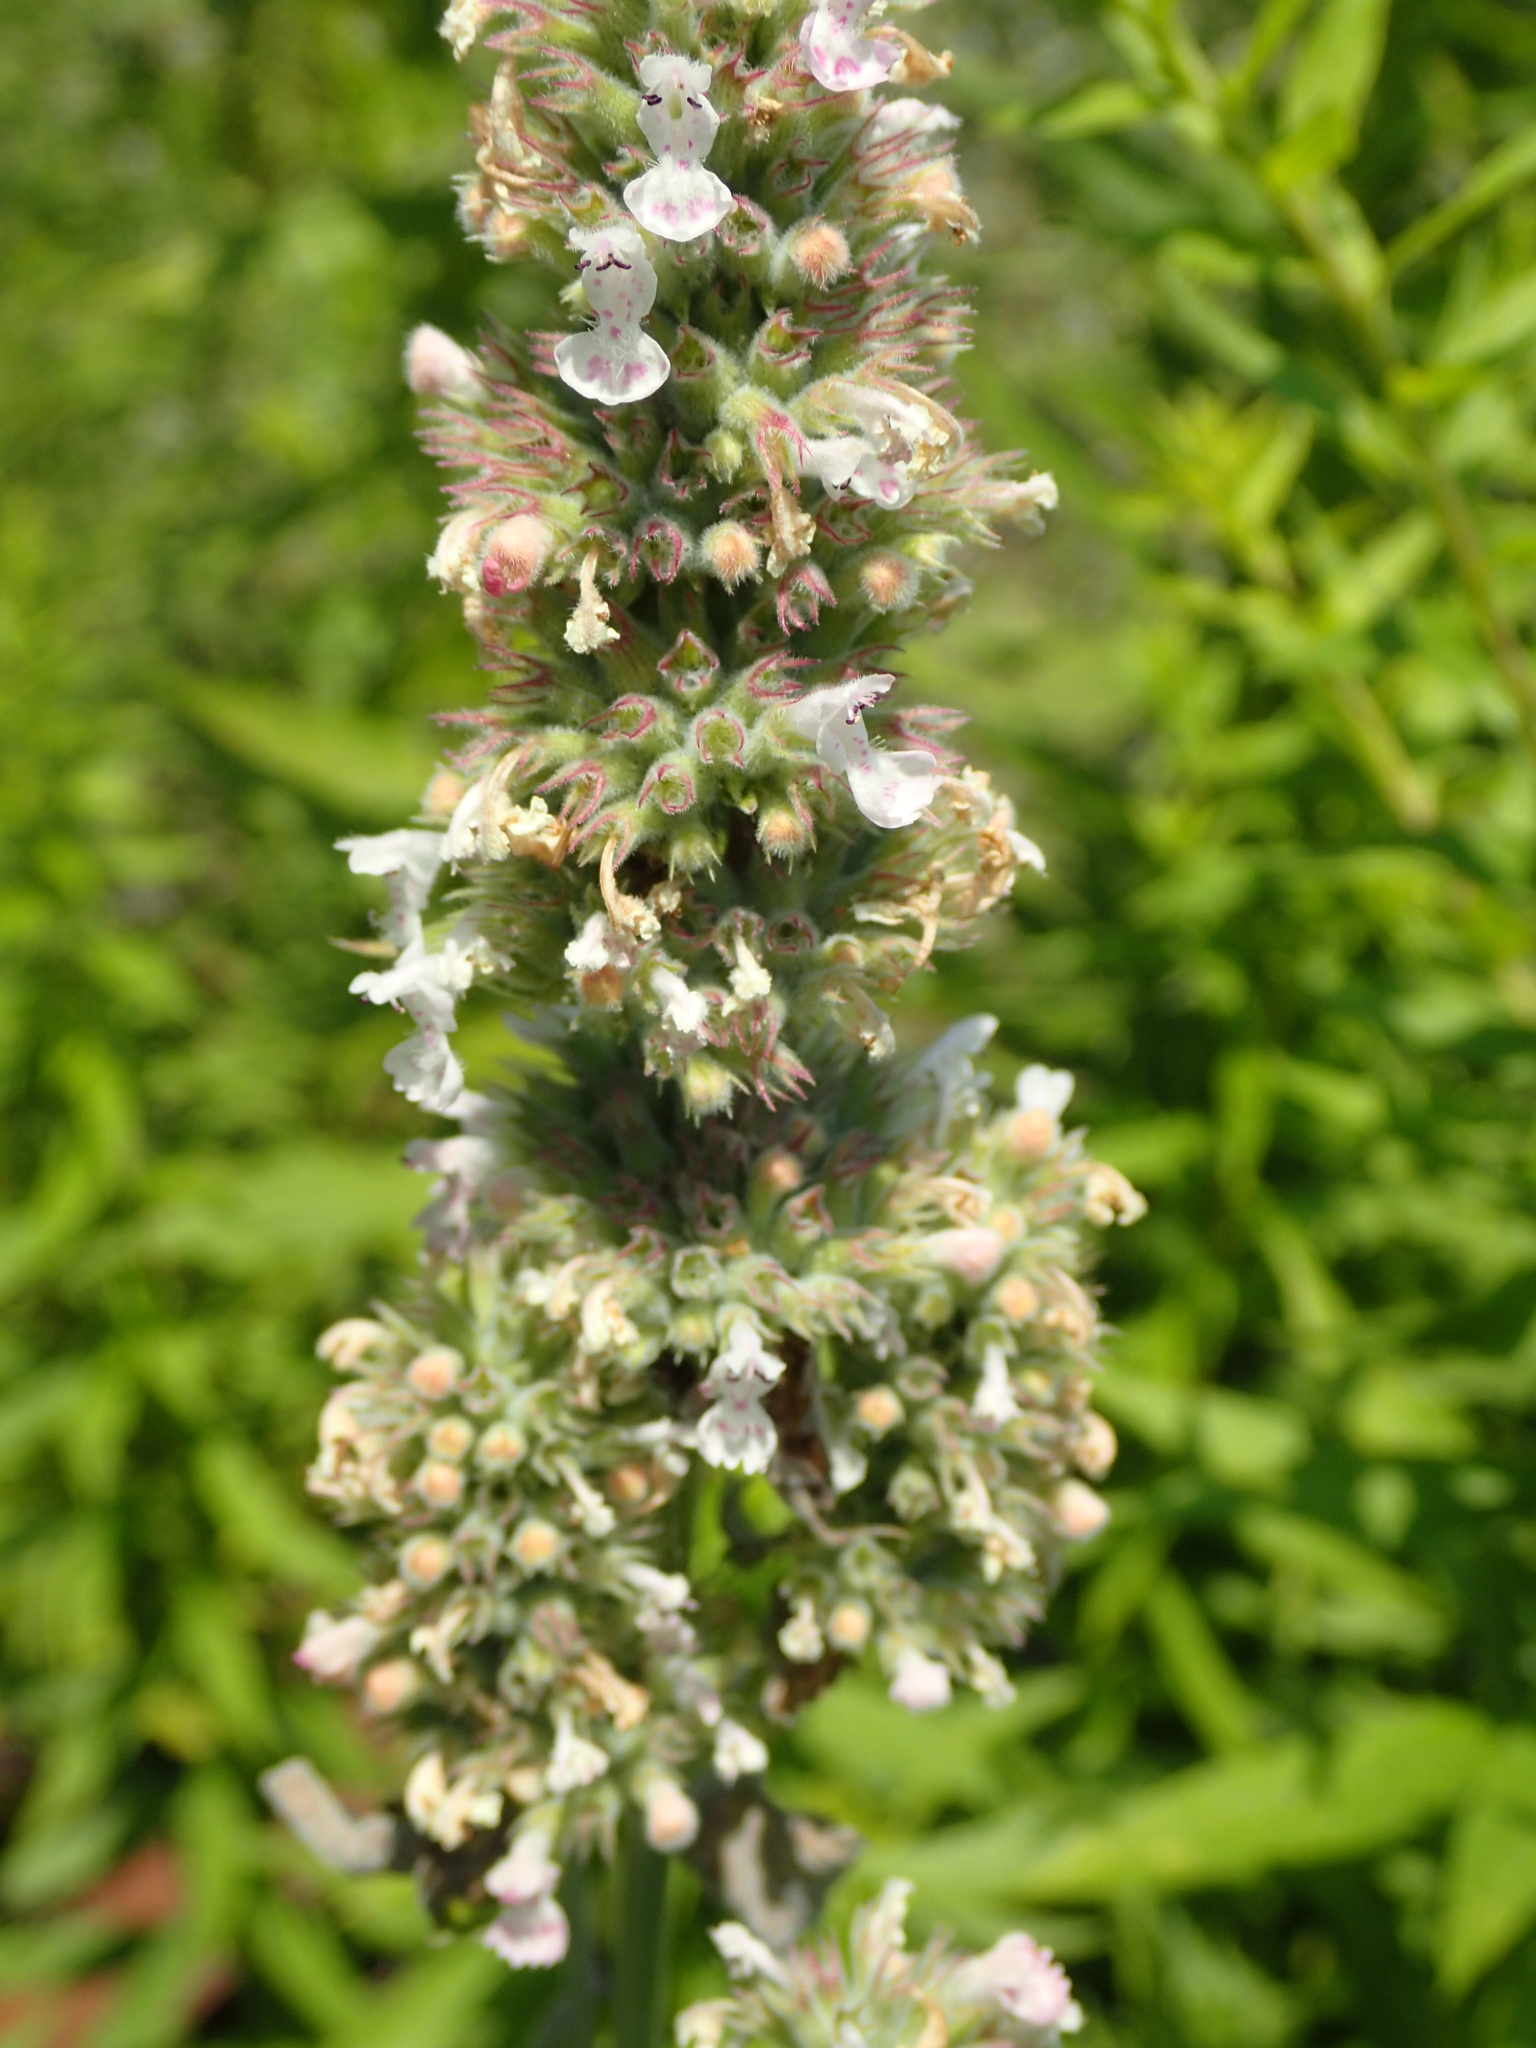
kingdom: Plantae
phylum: Tracheophyta
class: Magnoliopsida
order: Lamiales
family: Lamiaceae
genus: Nepeta
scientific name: Nepeta cataria
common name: Catnip
